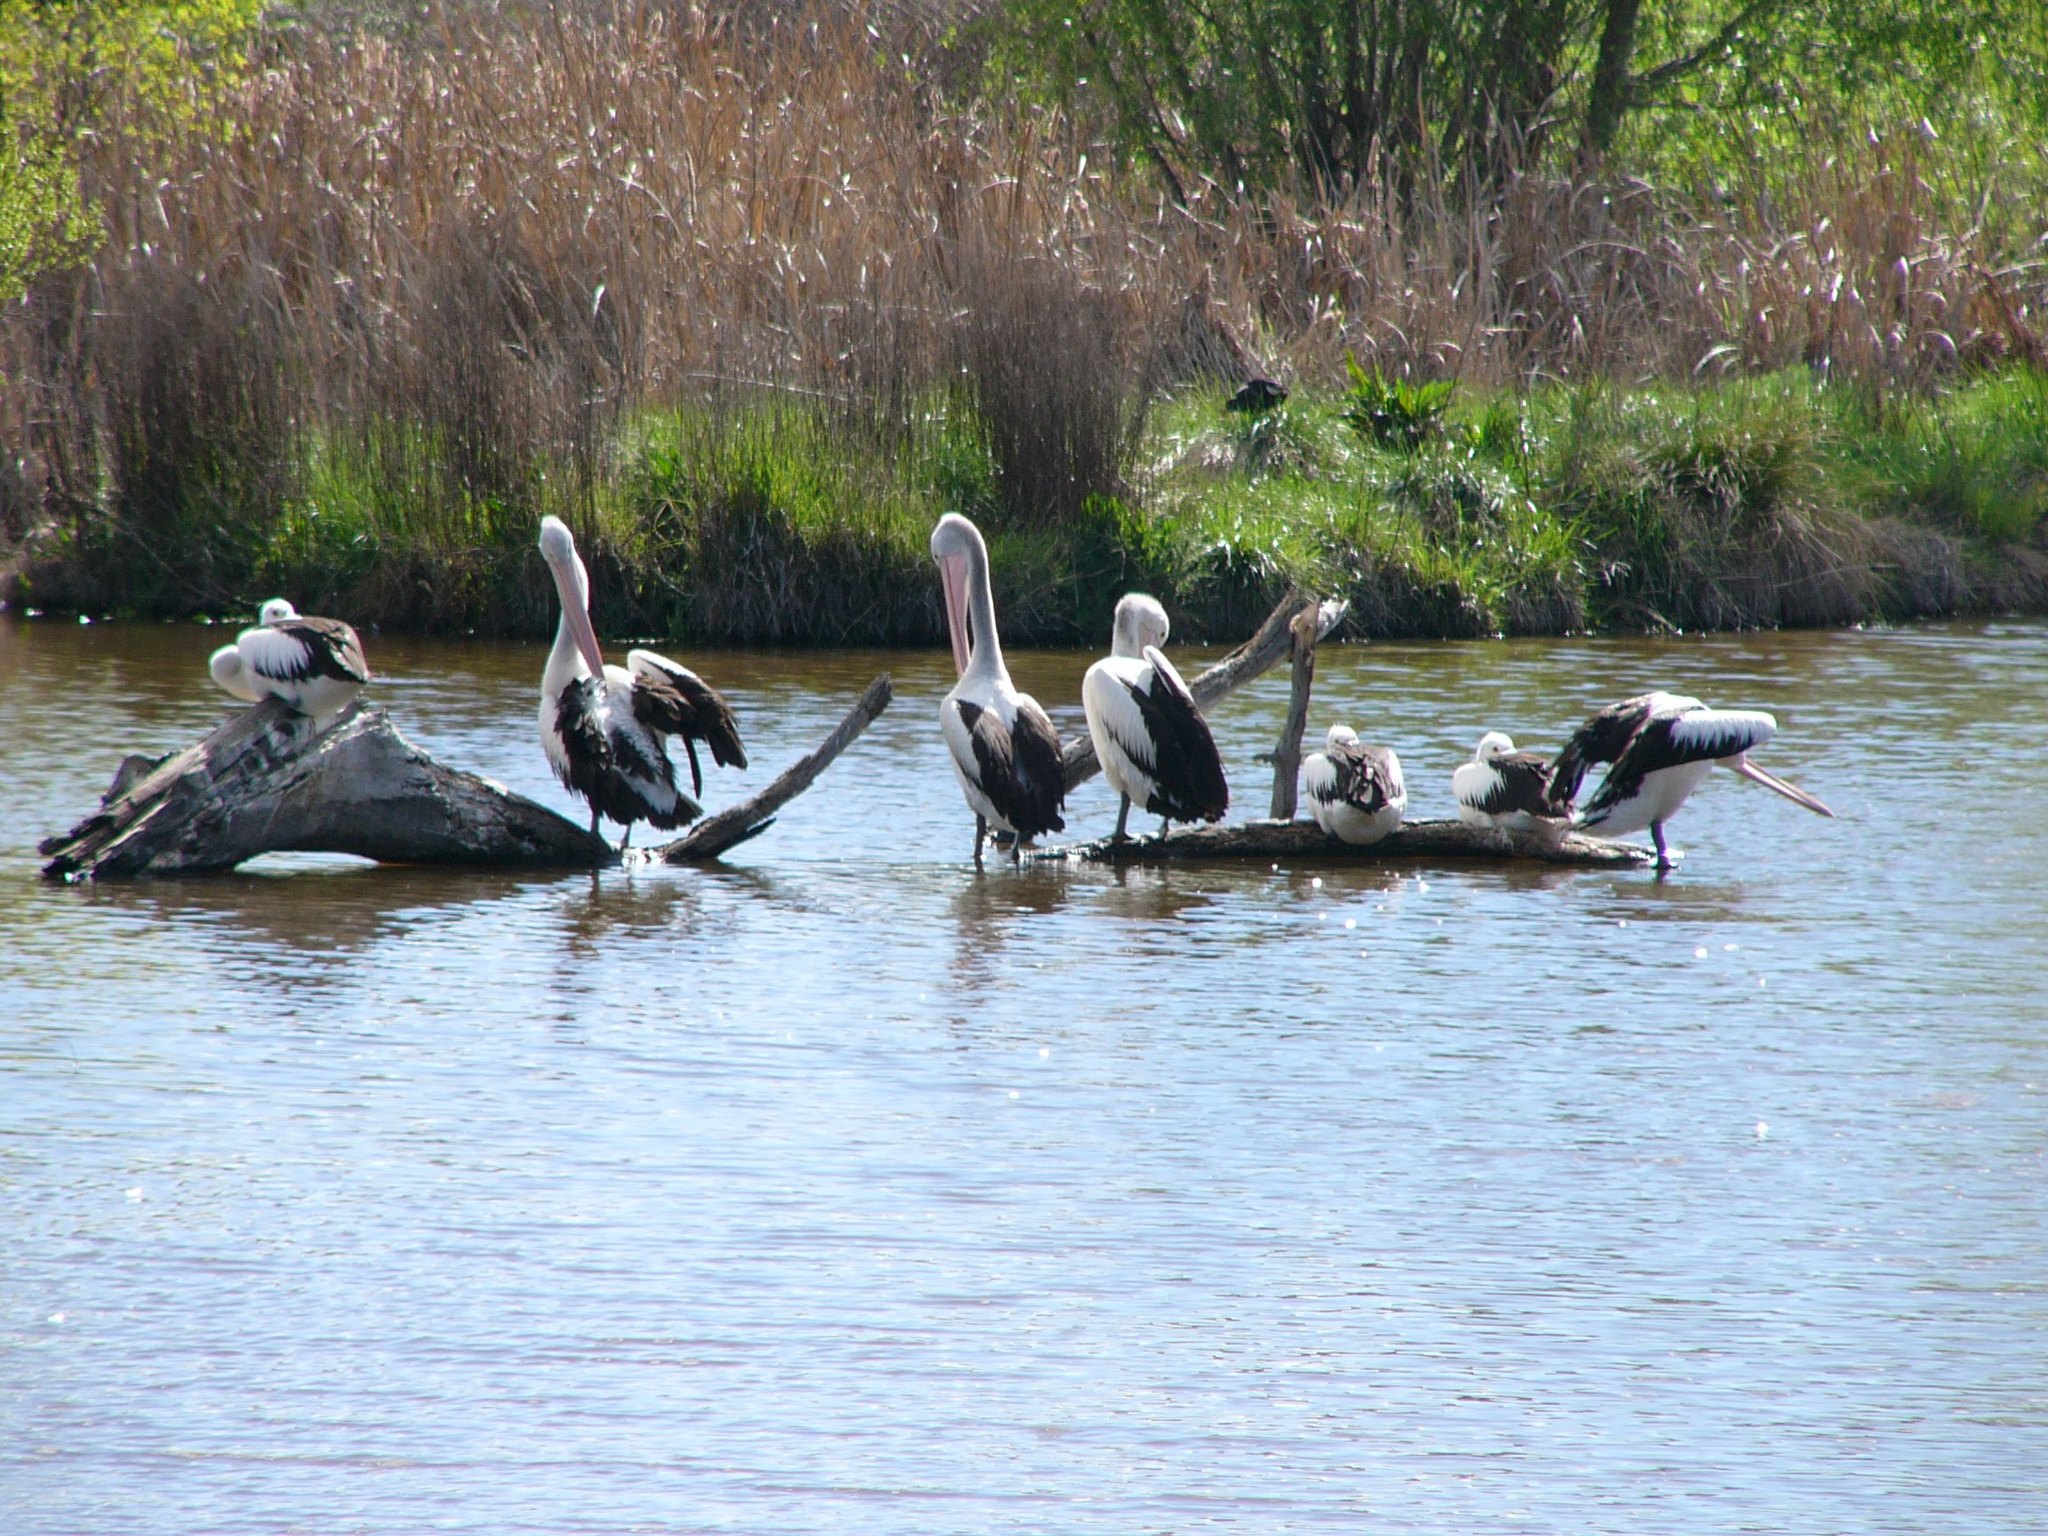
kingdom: Animalia
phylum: Chordata
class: Aves
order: Pelecaniformes
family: Pelecanidae
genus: Pelecanus
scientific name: Pelecanus conspicillatus
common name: Australian pelican
